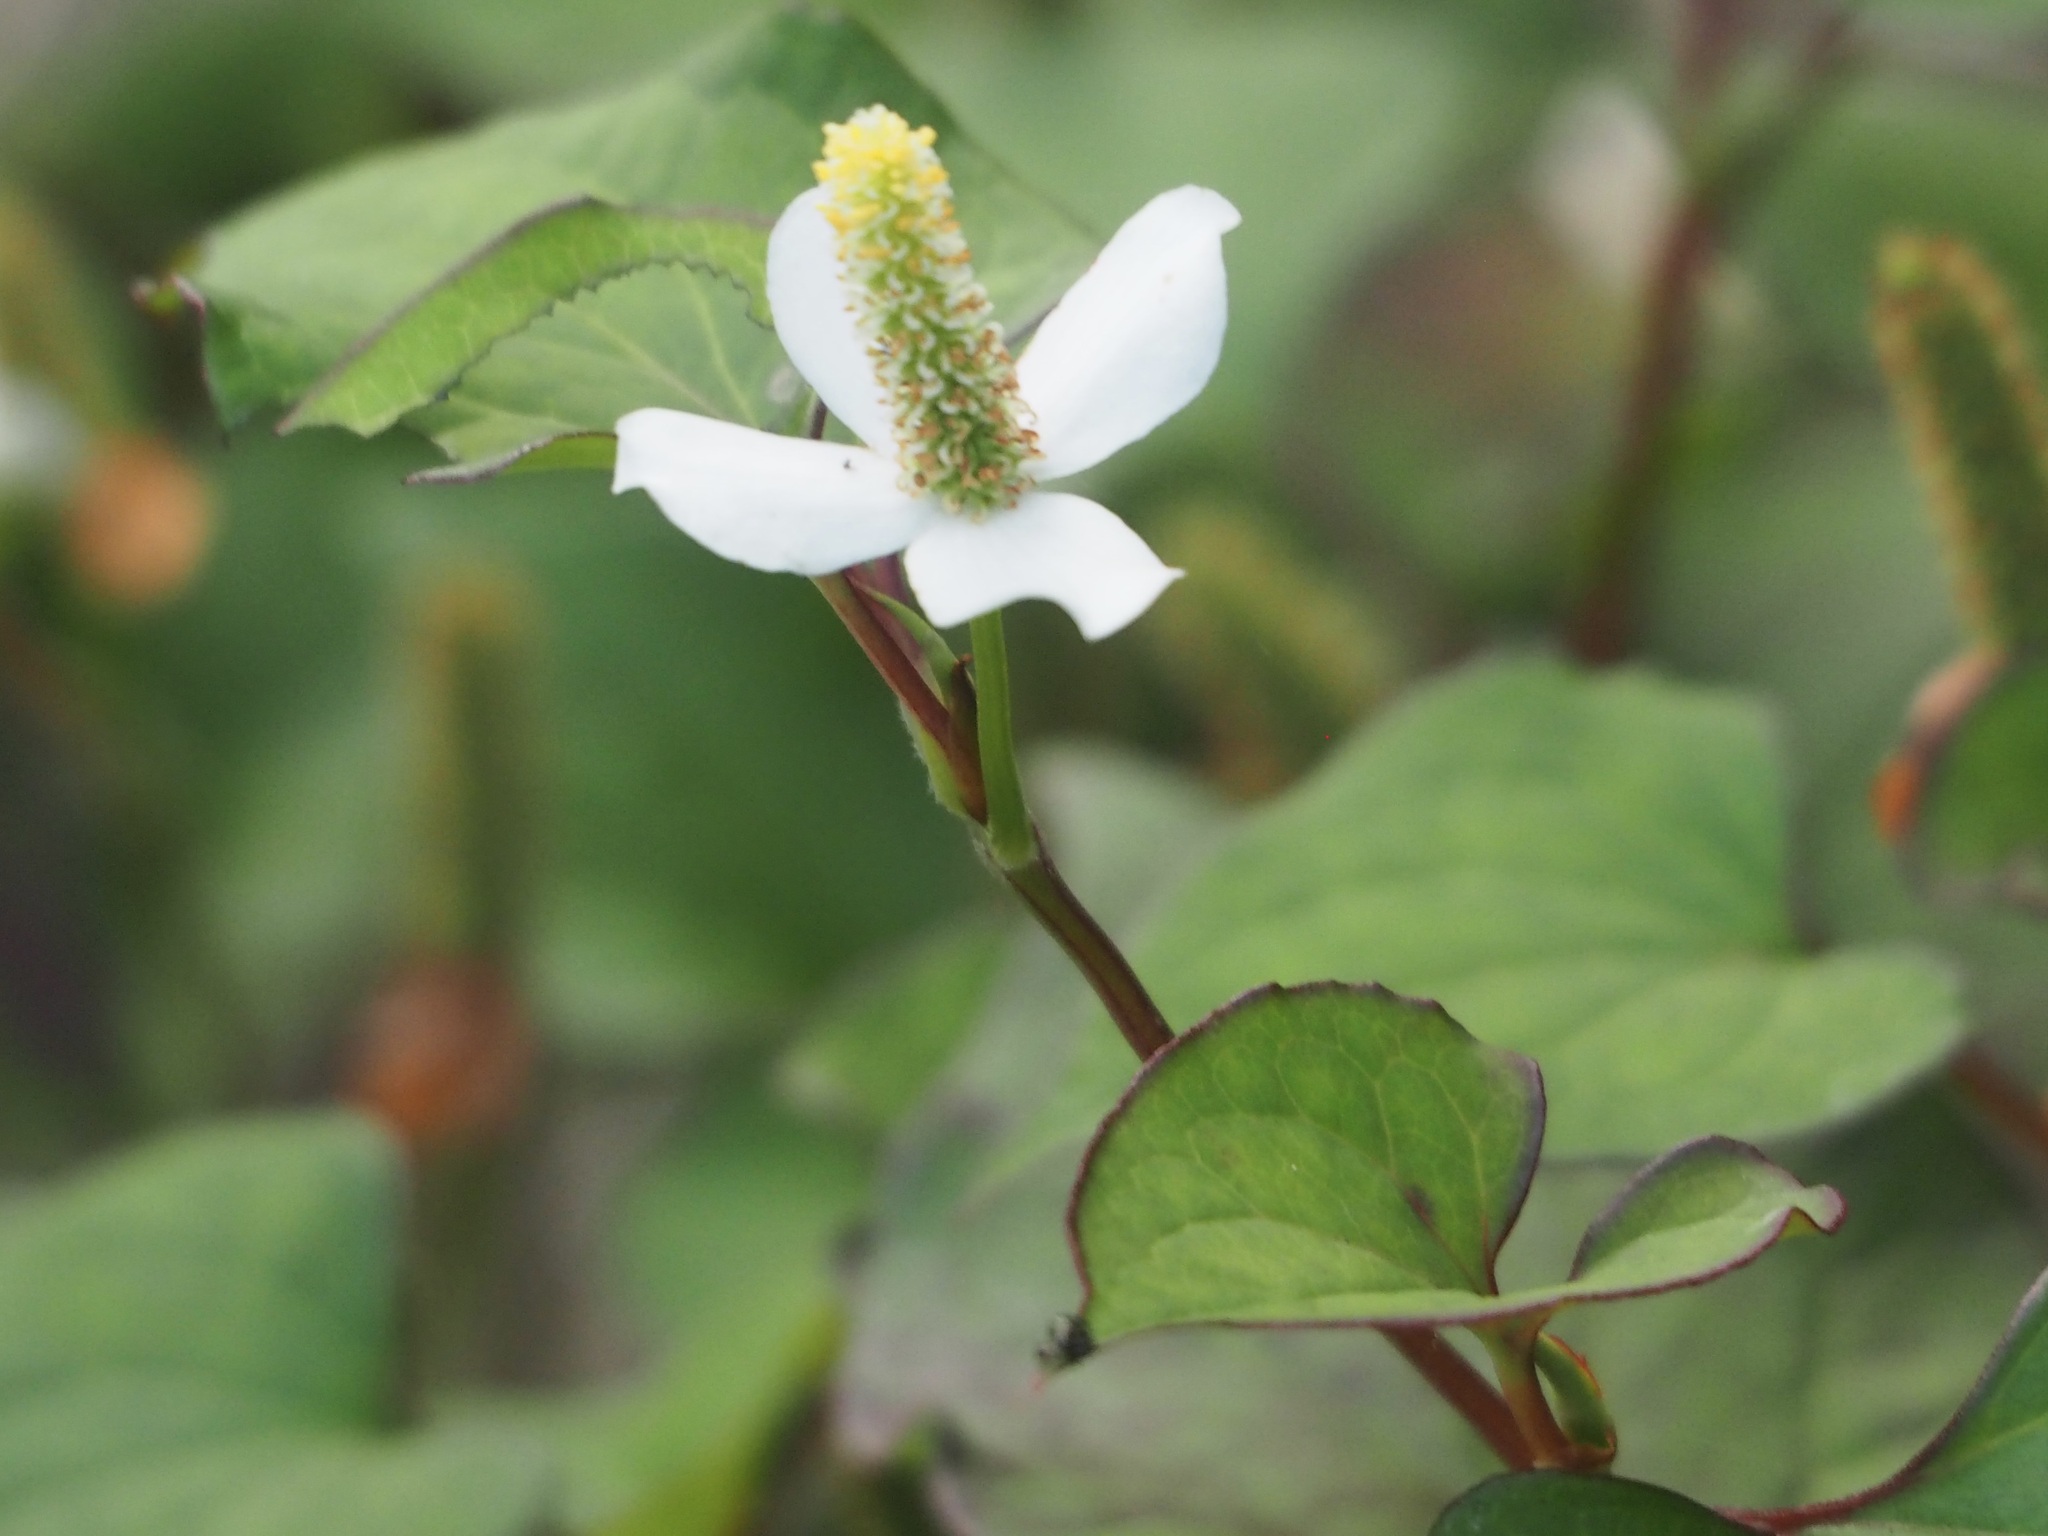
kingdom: Plantae
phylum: Tracheophyta
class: Magnoliopsida
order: Piperales
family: Saururaceae
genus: Houttuynia
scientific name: Houttuynia cordata
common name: Chameleon
